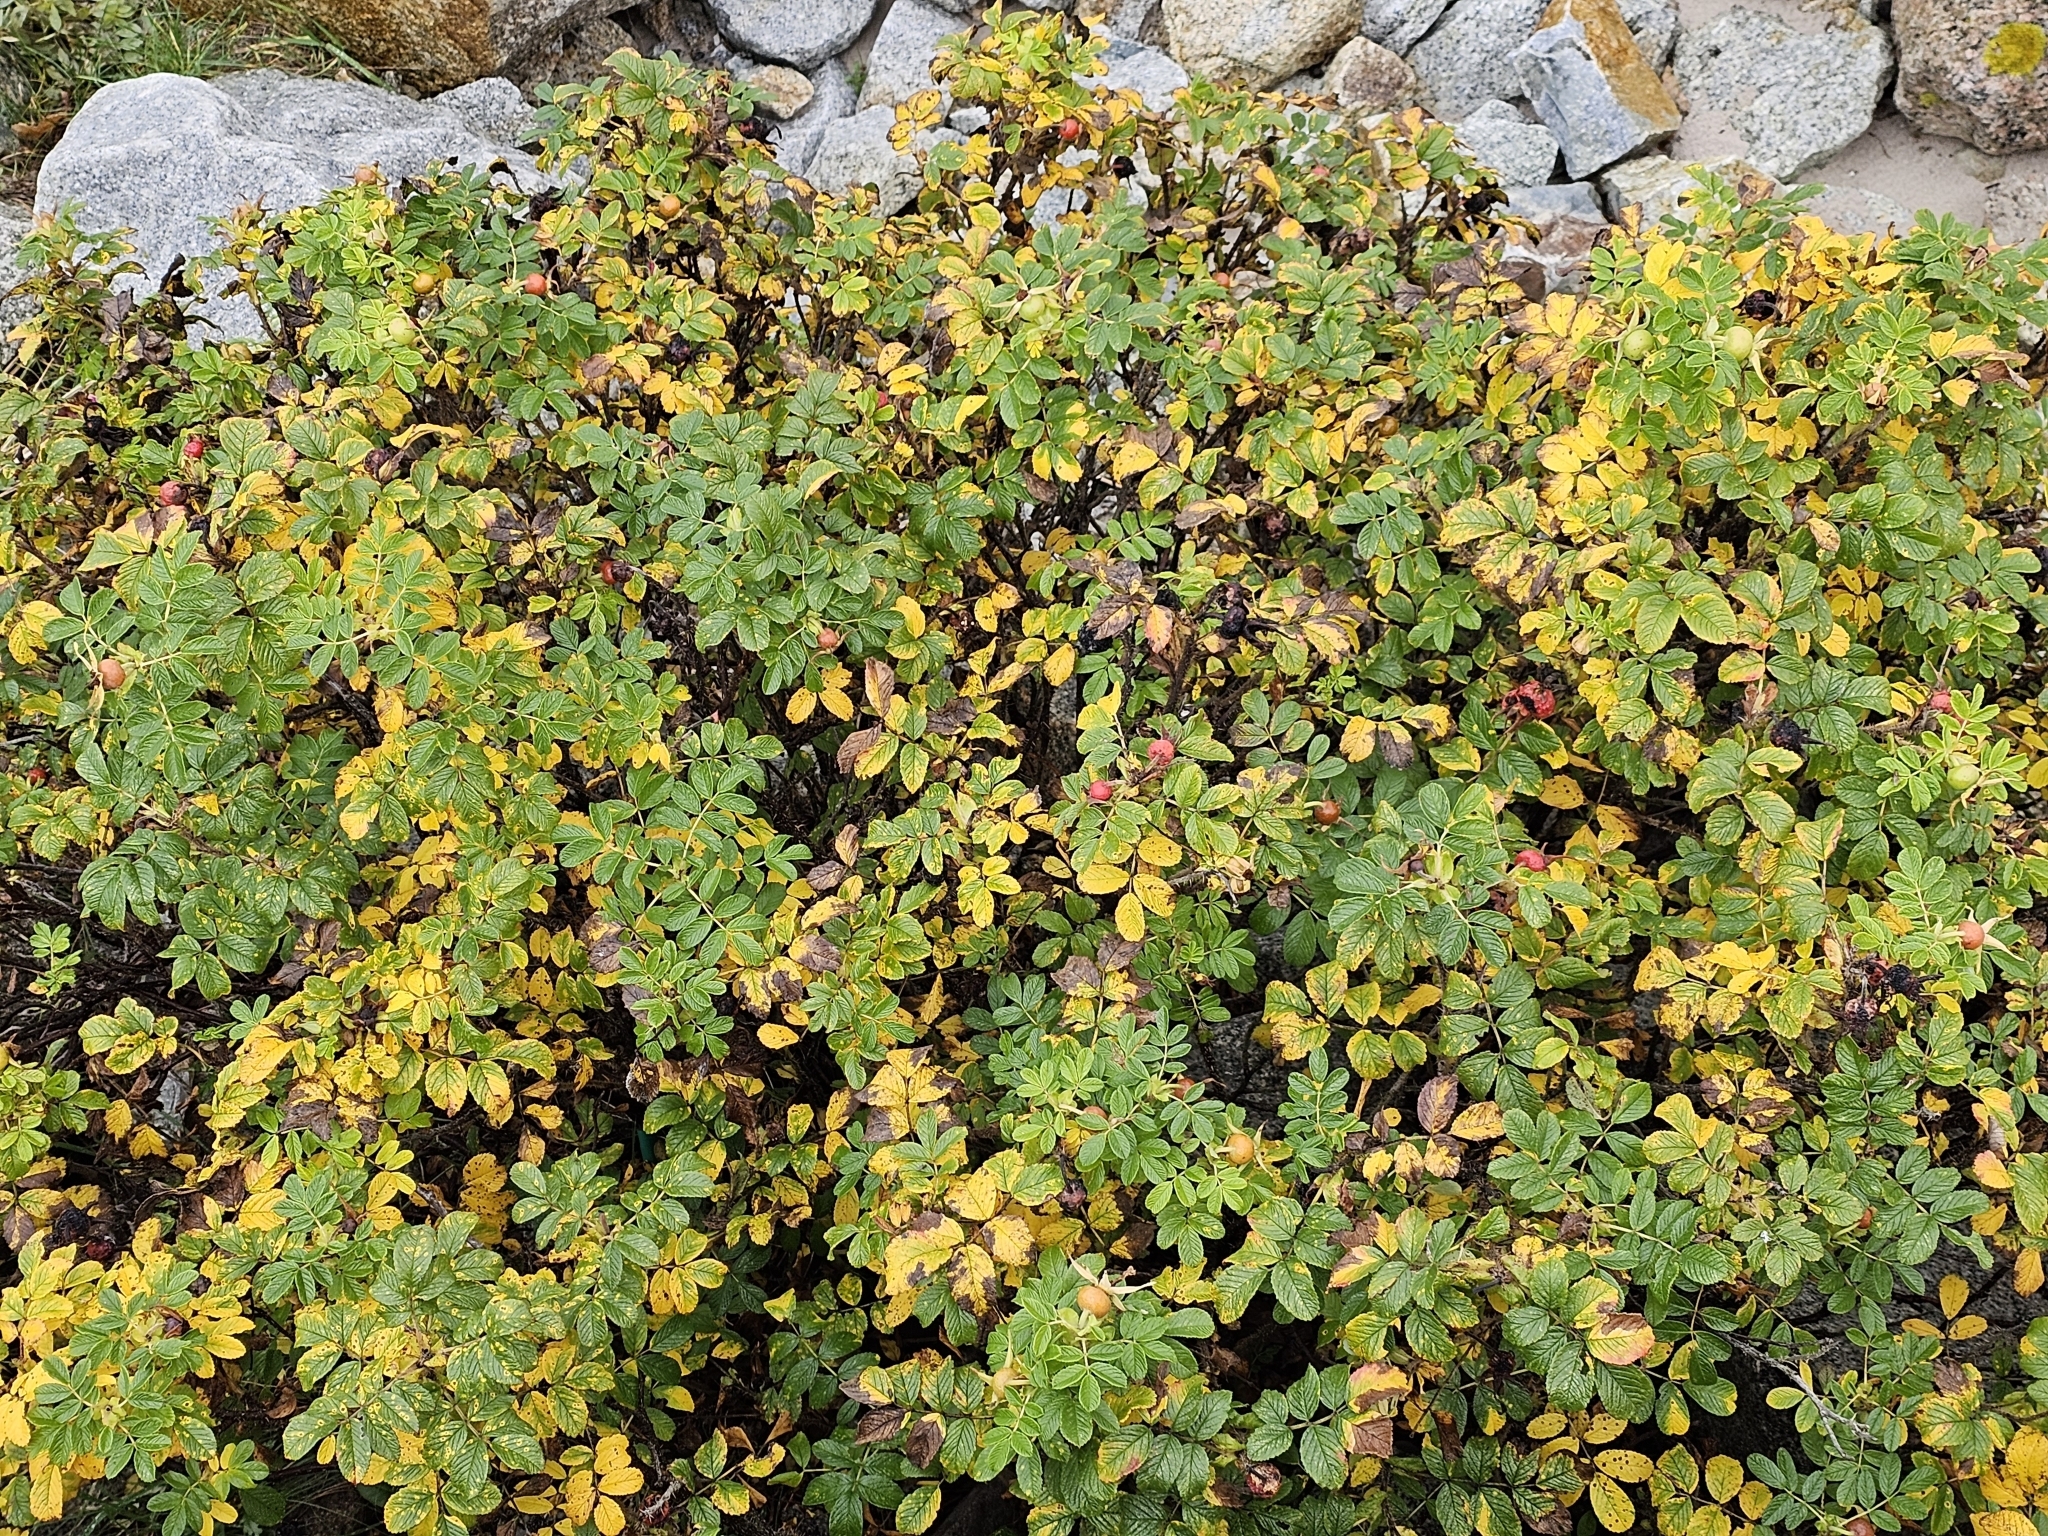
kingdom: Plantae
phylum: Tracheophyta
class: Magnoliopsida
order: Rosales
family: Rosaceae
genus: Rosa
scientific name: Rosa rugosa
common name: Japanese rose
